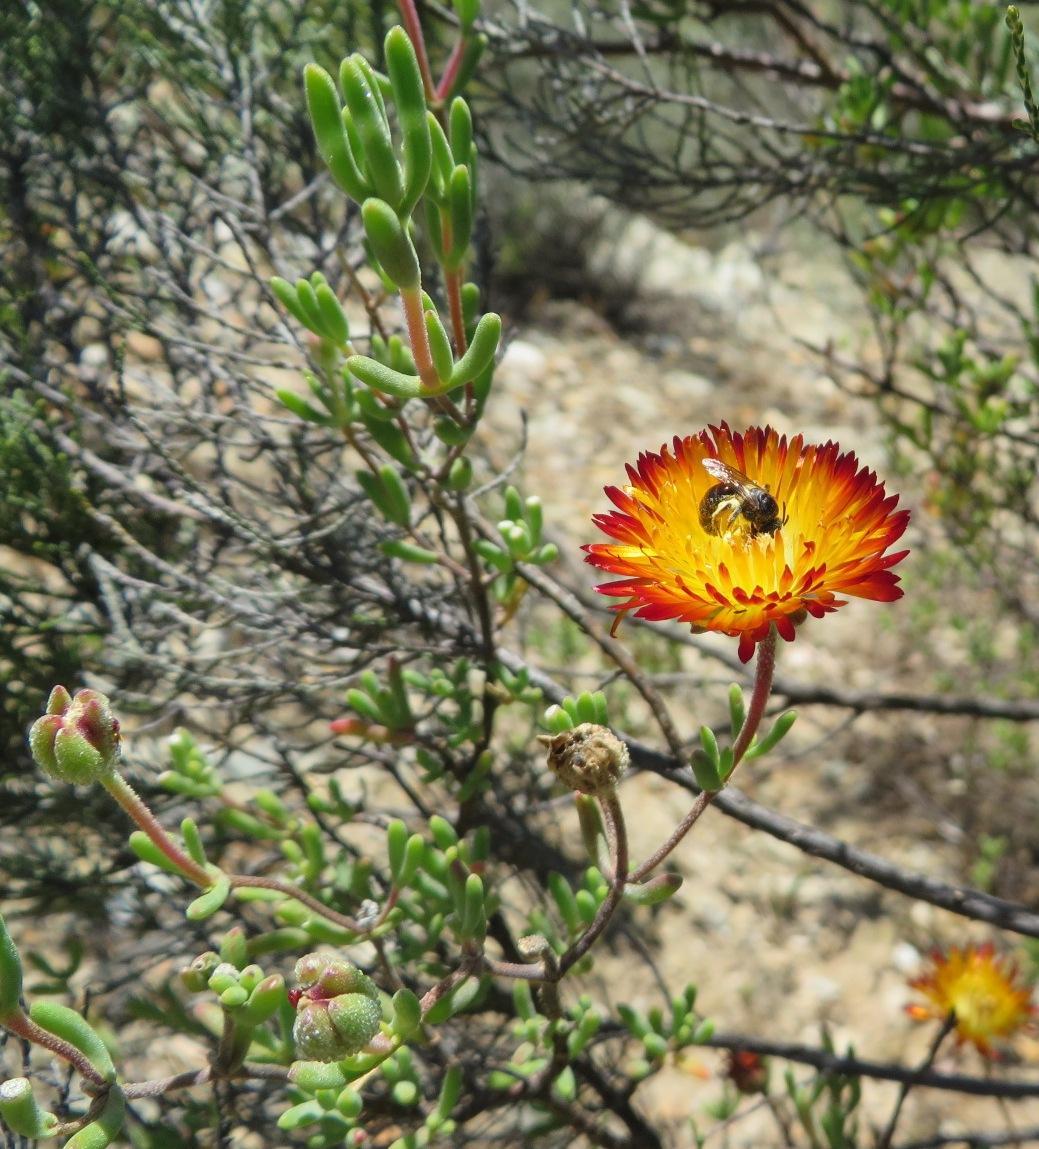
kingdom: Plantae
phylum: Tracheophyta
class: Magnoliopsida
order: Caryophyllales
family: Aizoaceae
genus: Drosanthemum
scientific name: Drosanthemum bicolor
